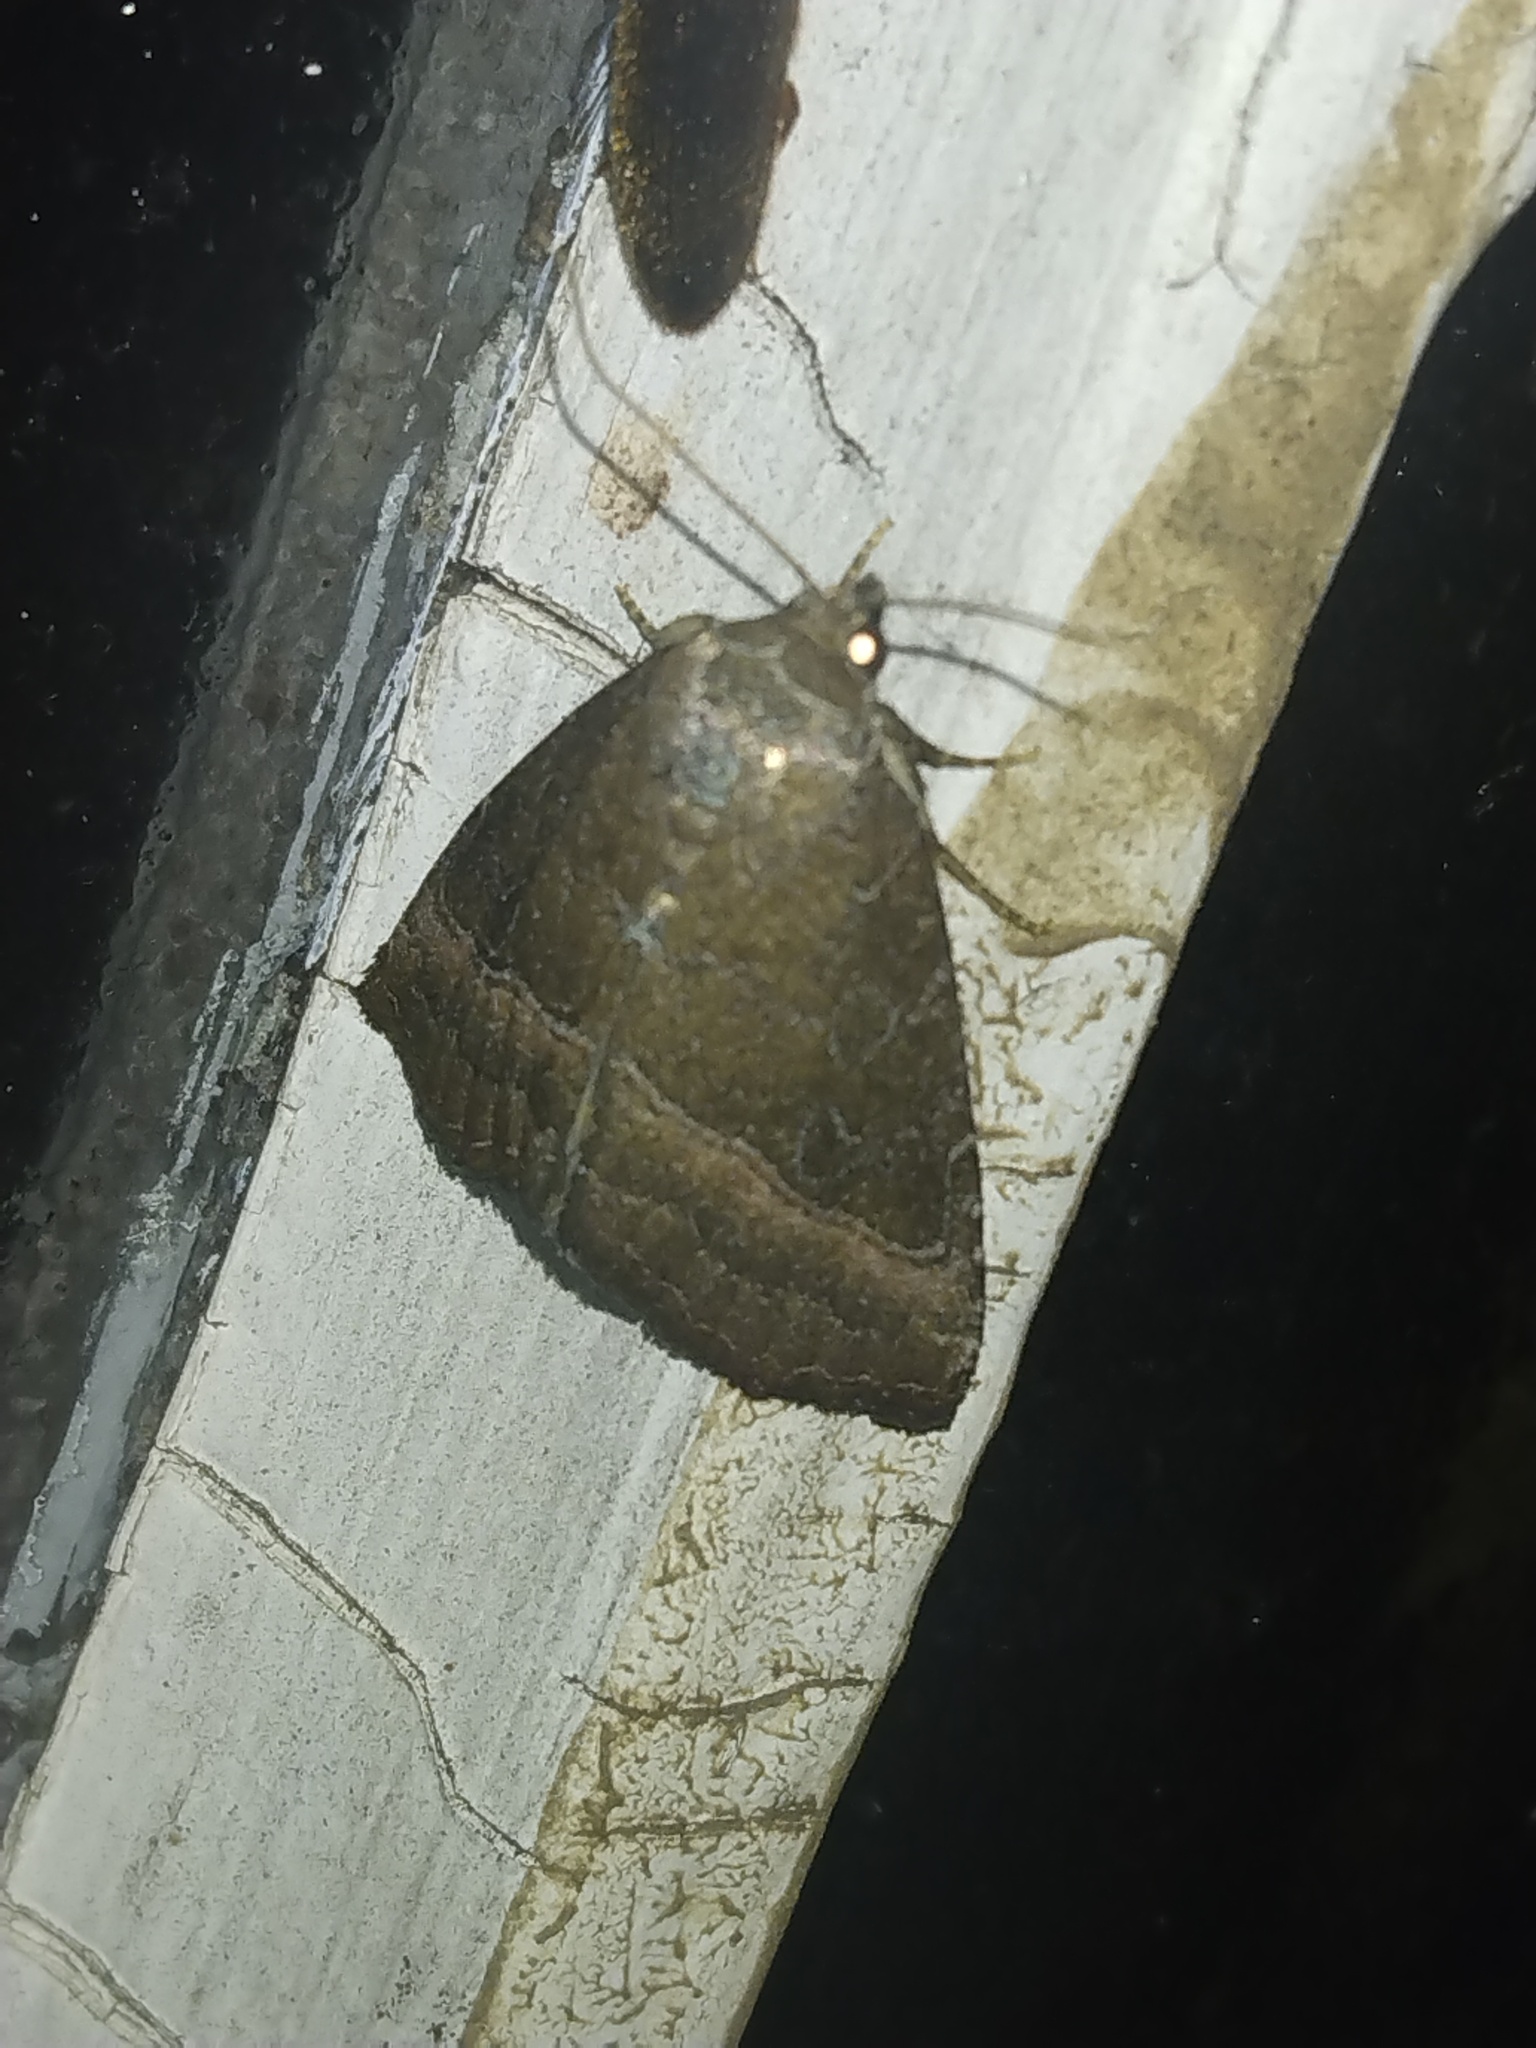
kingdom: Animalia
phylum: Arthropoda
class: Insecta
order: Lepidoptera
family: Noctuidae
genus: Ogdoconta
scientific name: Ogdoconta cinereola
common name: Common pinkband
